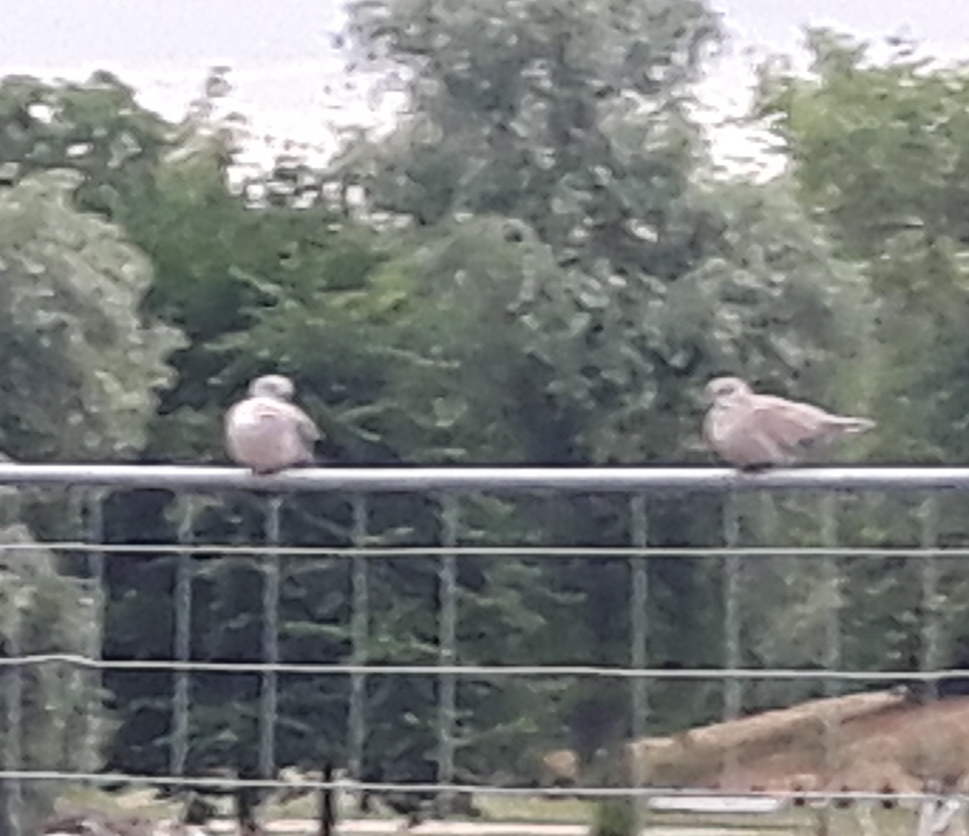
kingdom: Animalia
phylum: Chordata
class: Aves
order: Columbiformes
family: Columbidae
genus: Streptopelia
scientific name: Streptopelia decaocto
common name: Eurasian collared dove
